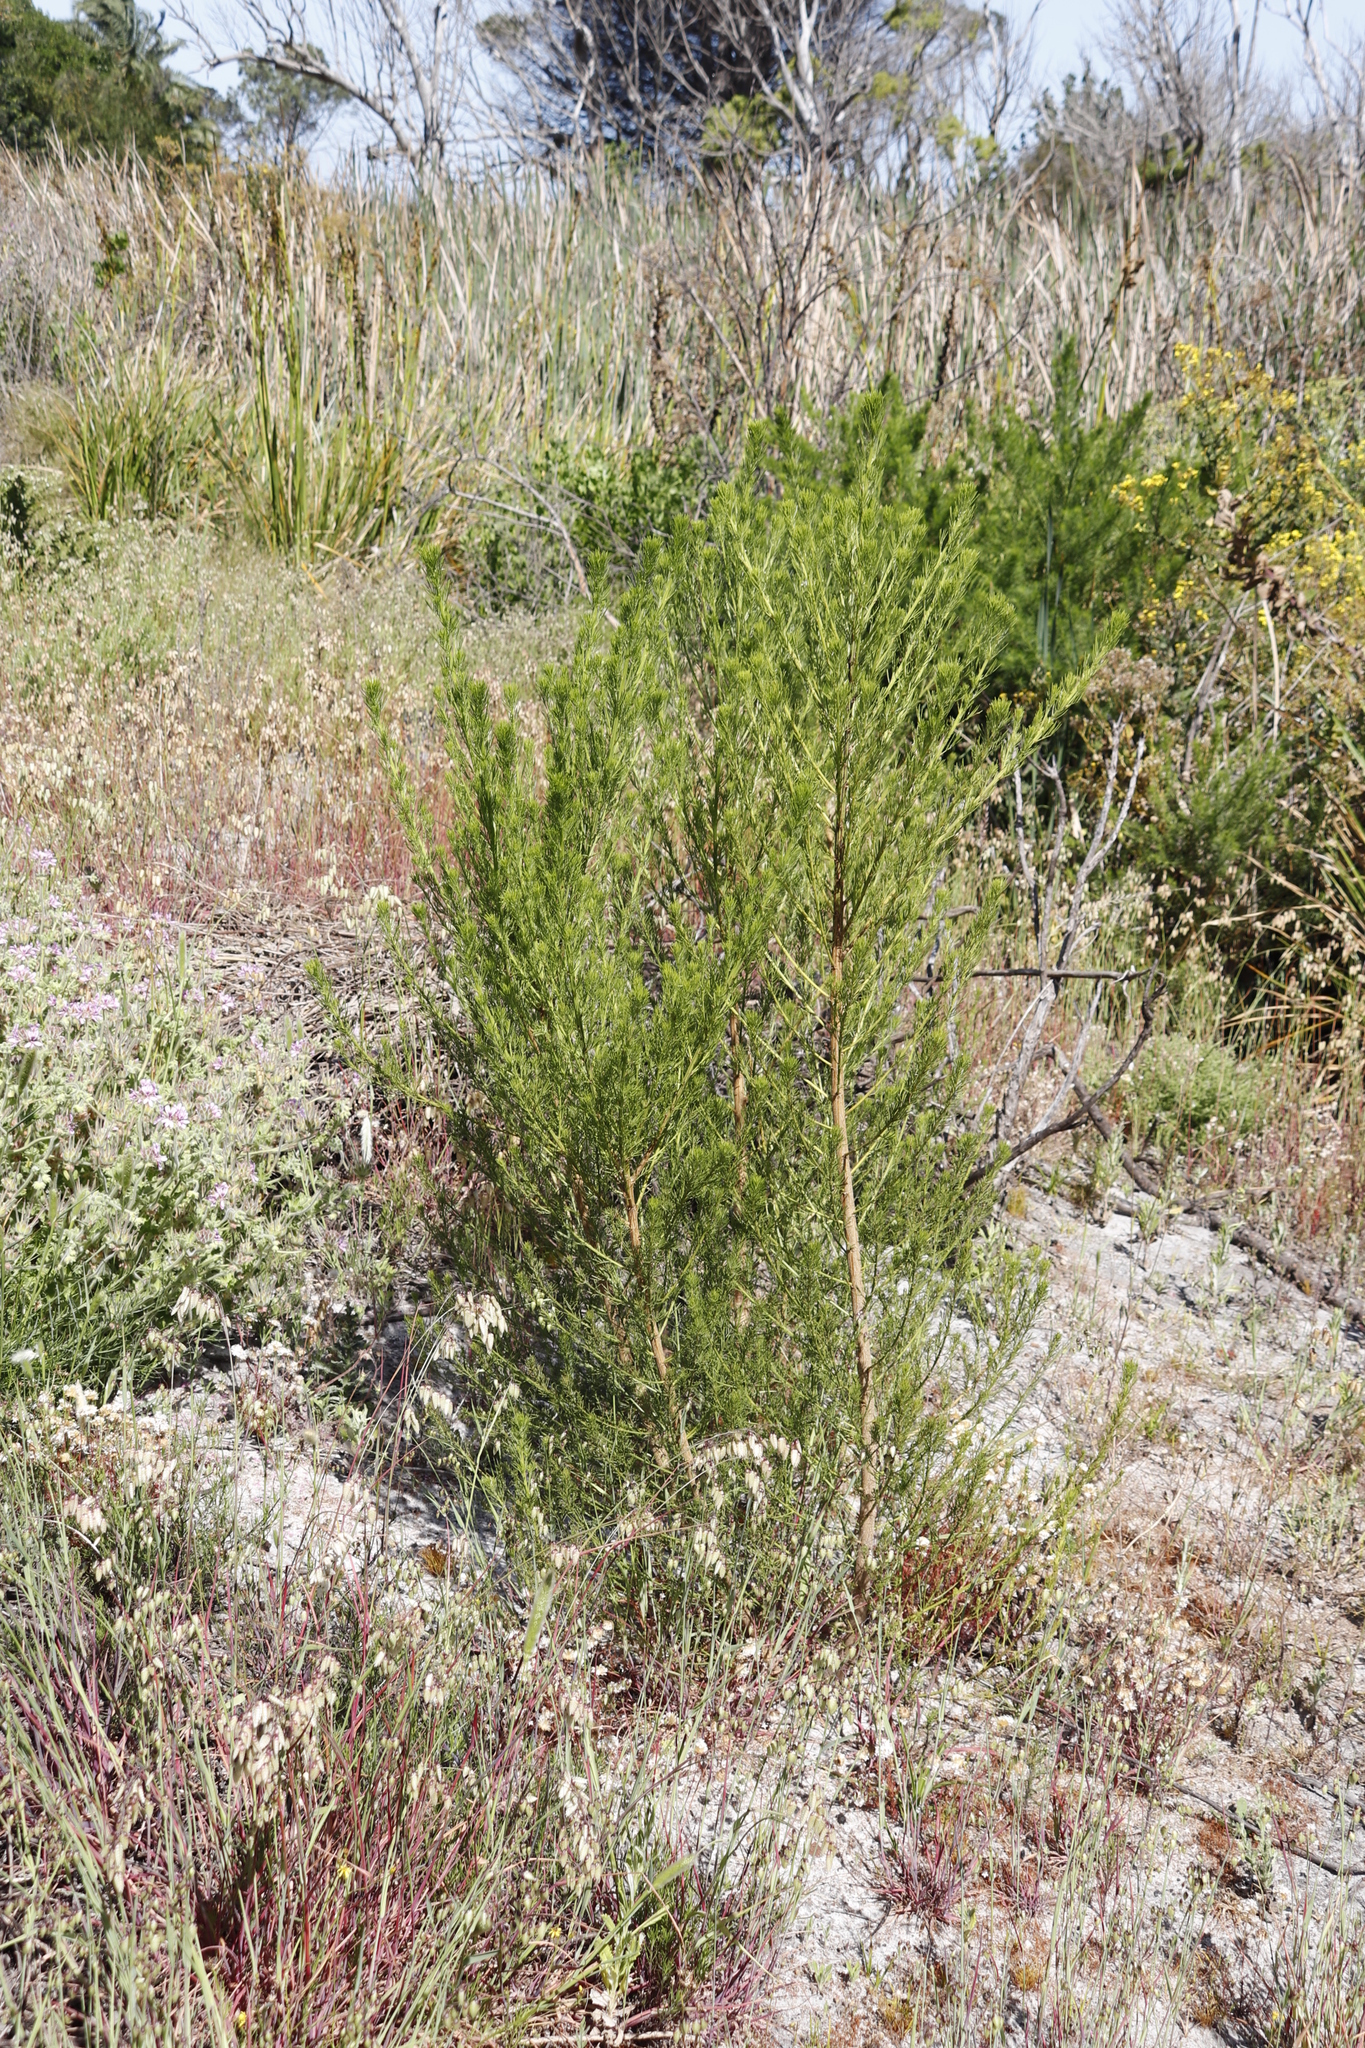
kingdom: Plantae
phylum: Tracheophyta
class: Magnoliopsida
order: Fabales
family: Fabaceae
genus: Psoralea
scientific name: Psoralea pinnata
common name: African scurfpea
